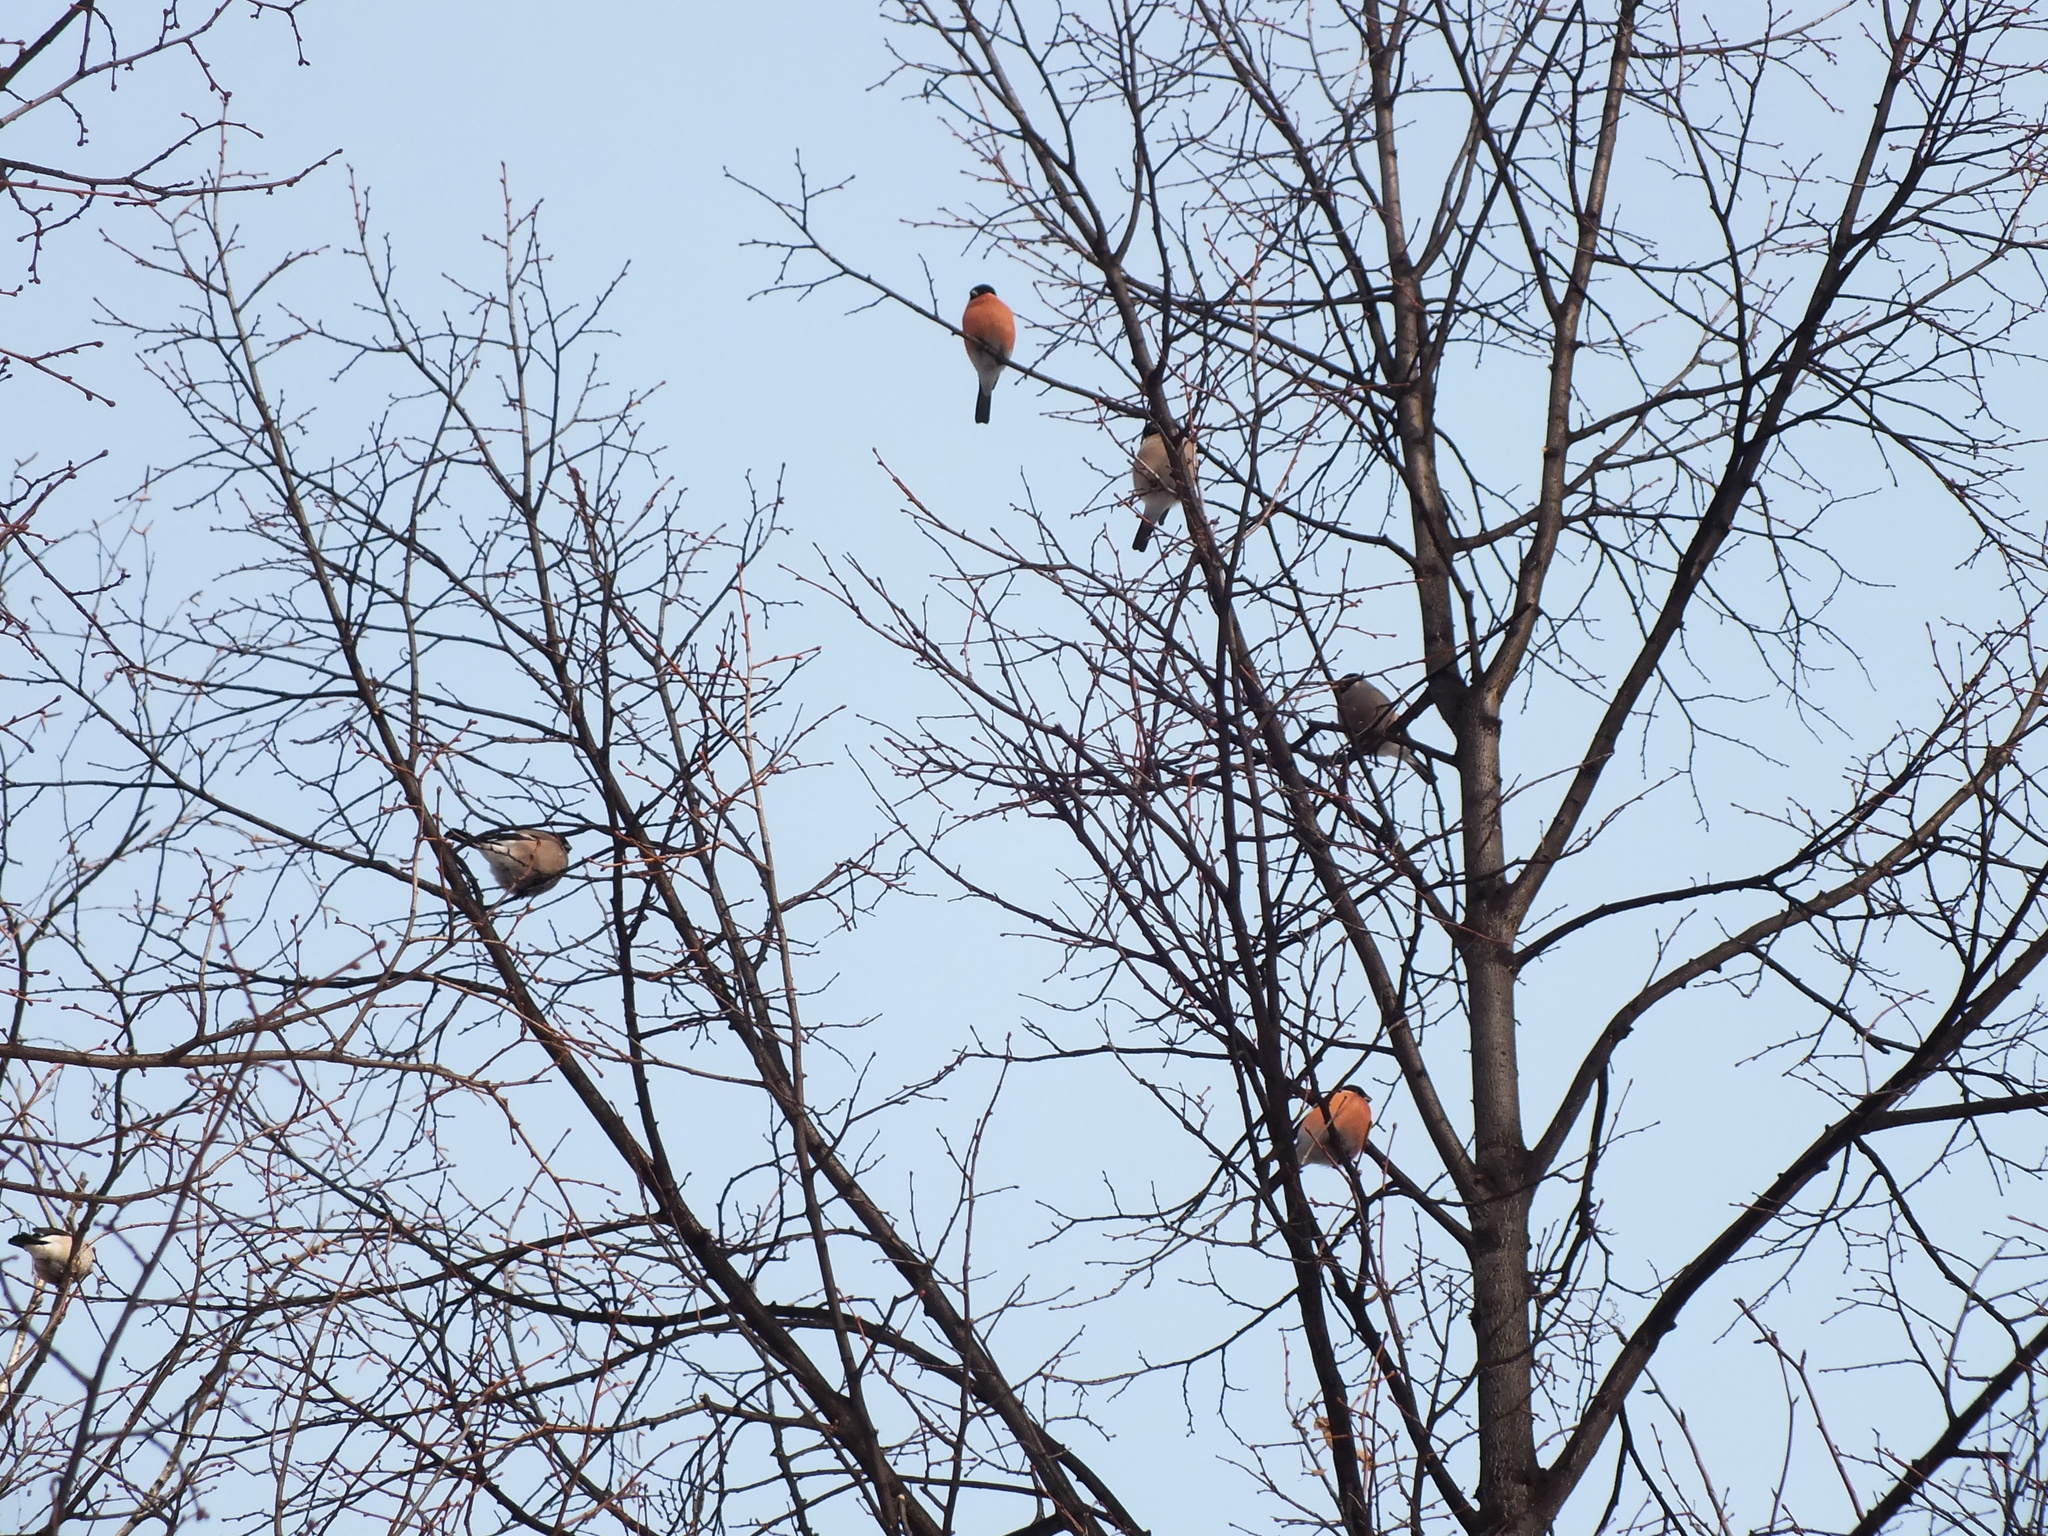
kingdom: Animalia
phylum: Chordata
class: Aves
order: Passeriformes
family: Fringillidae
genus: Pyrrhula
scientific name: Pyrrhula pyrrhula
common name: Eurasian bullfinch
